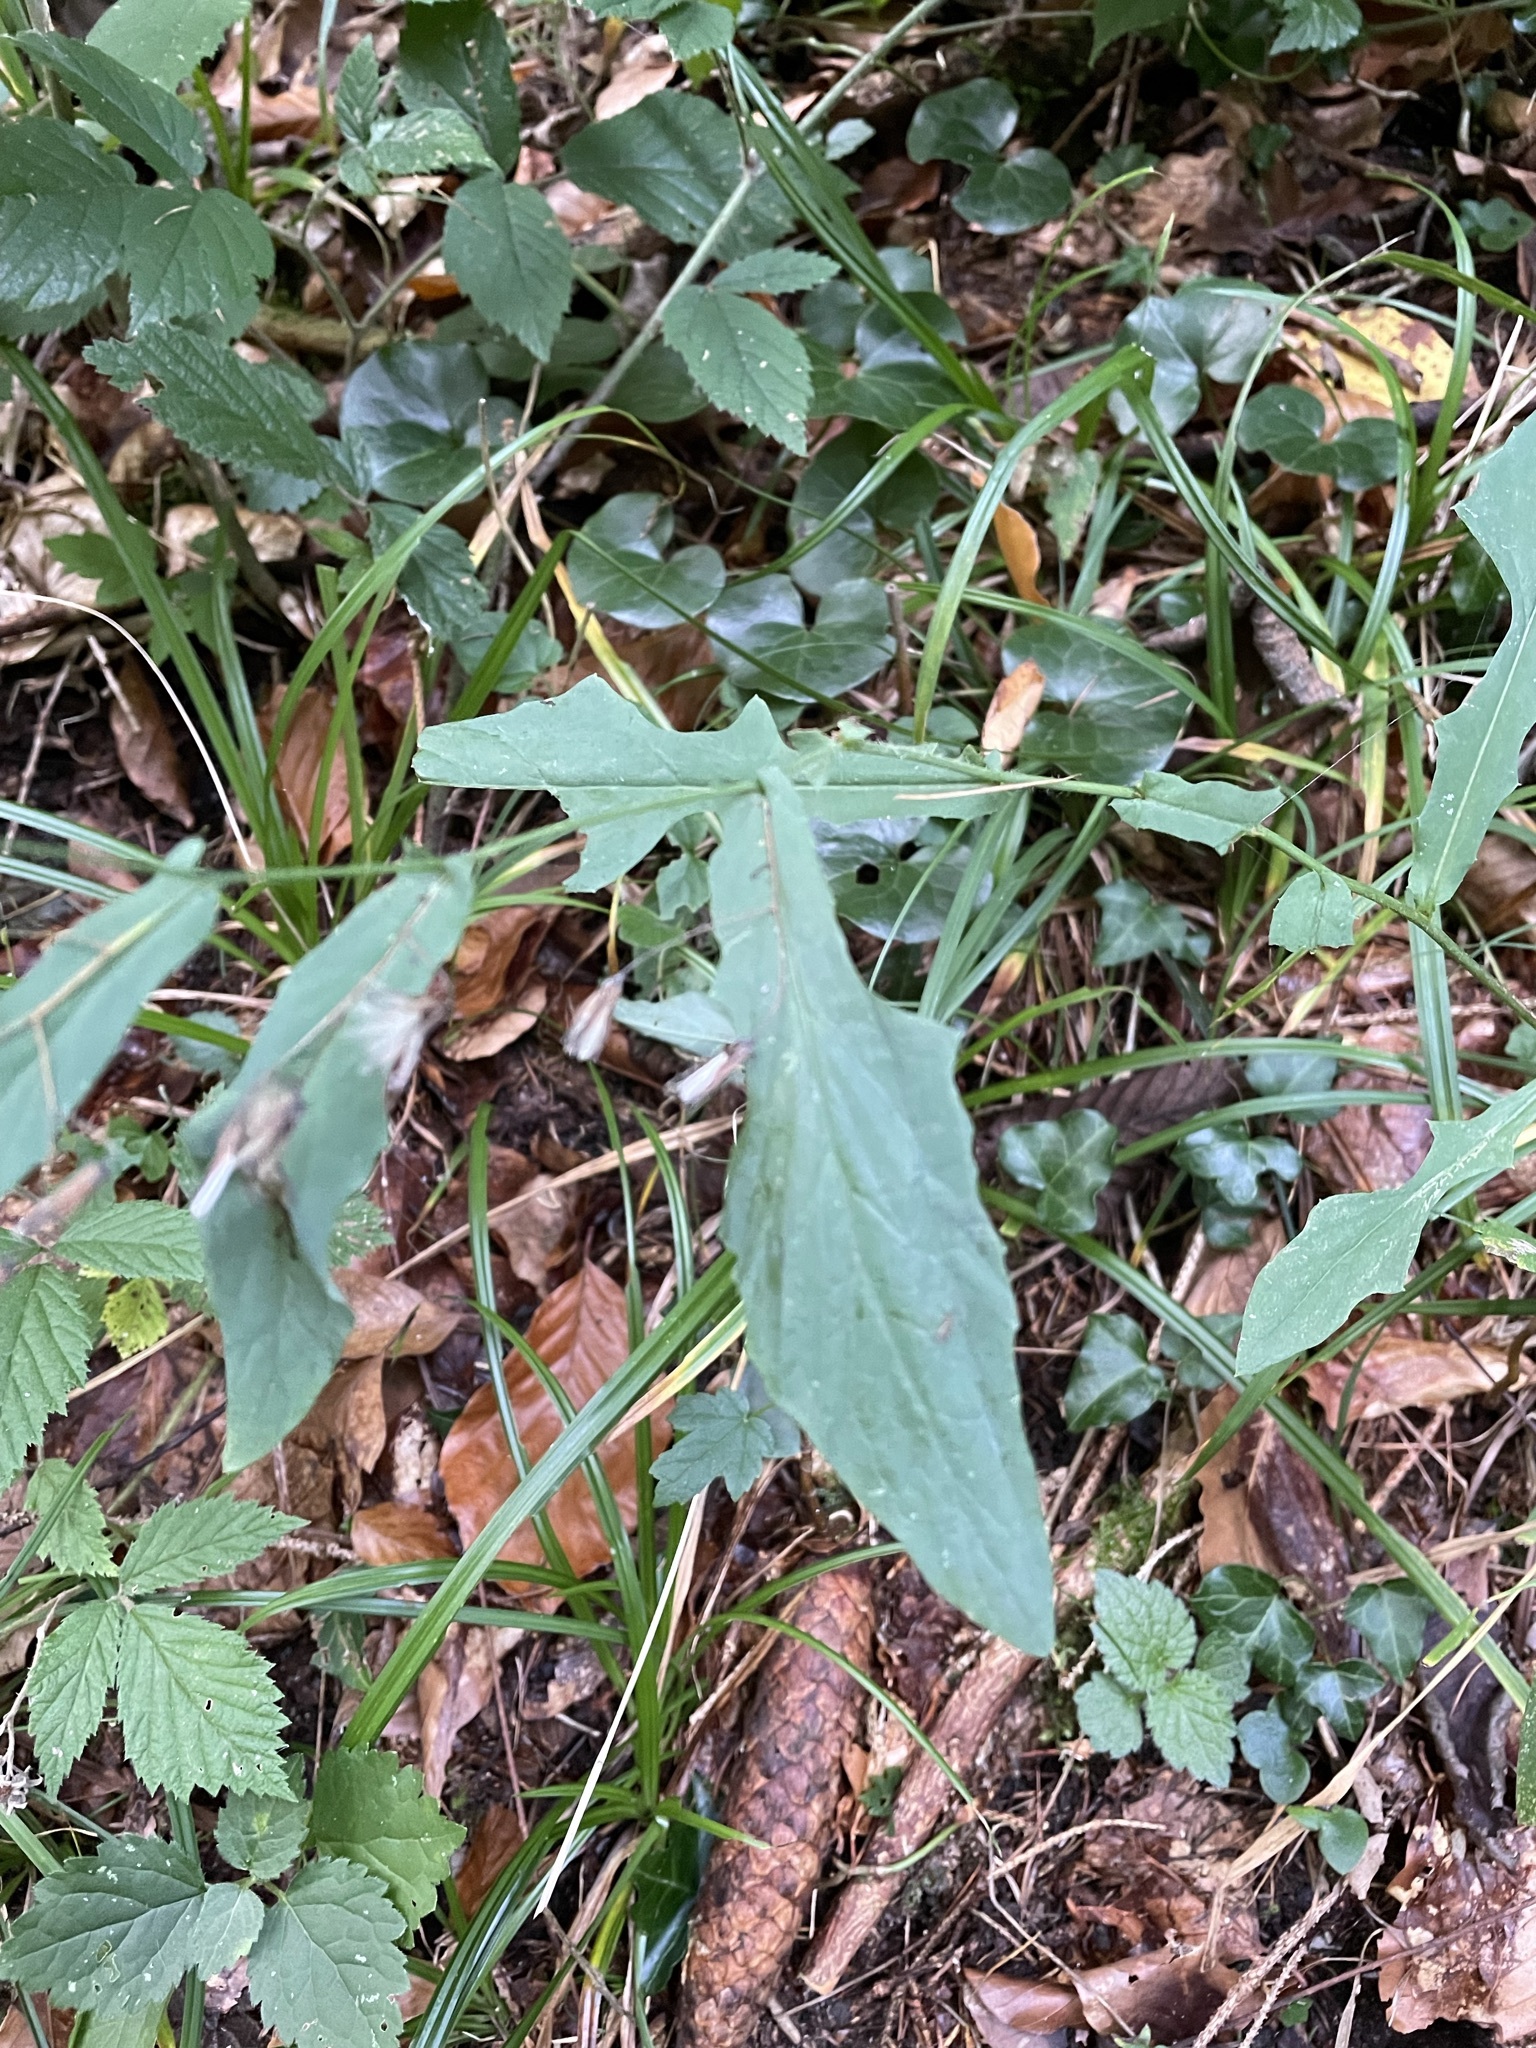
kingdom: Plantae
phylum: Tracheophyta
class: Magnoliopsida
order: Asterales
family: Asteraceae
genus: Prenanthes
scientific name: Prenanthes purpurea
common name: Purple lettuce
